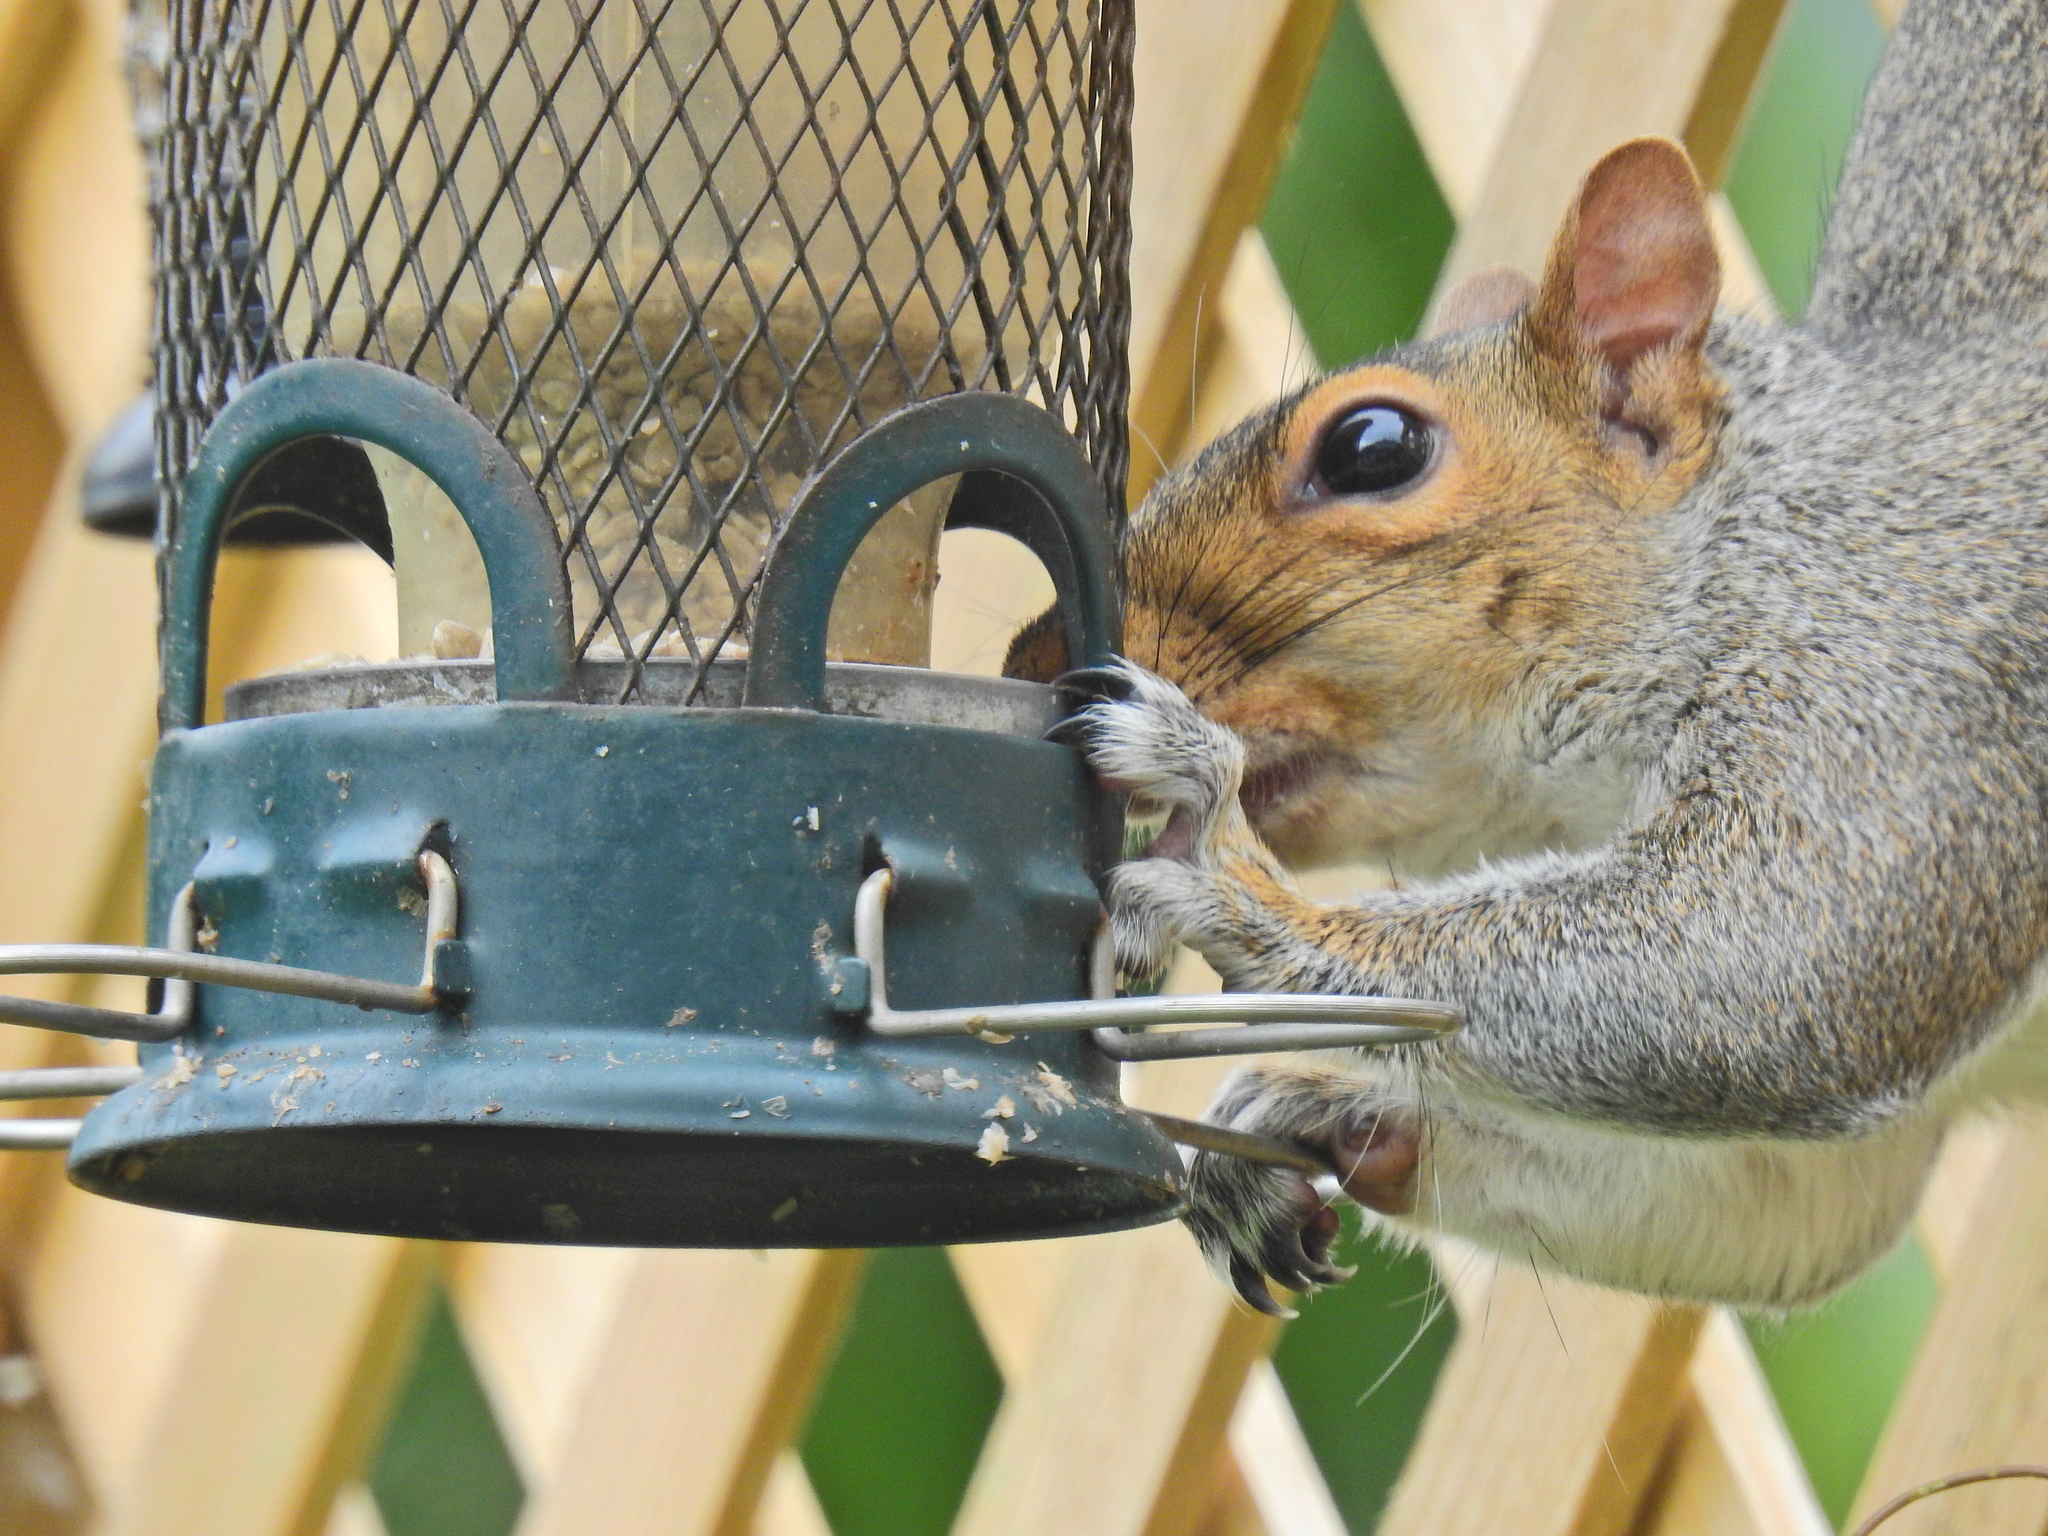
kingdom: Animalia
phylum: Chordata
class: Mammalia
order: Rodentia
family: Sciuridae
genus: Sciurus
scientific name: Sciurus carolinensis
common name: Eastern gray squirrel
